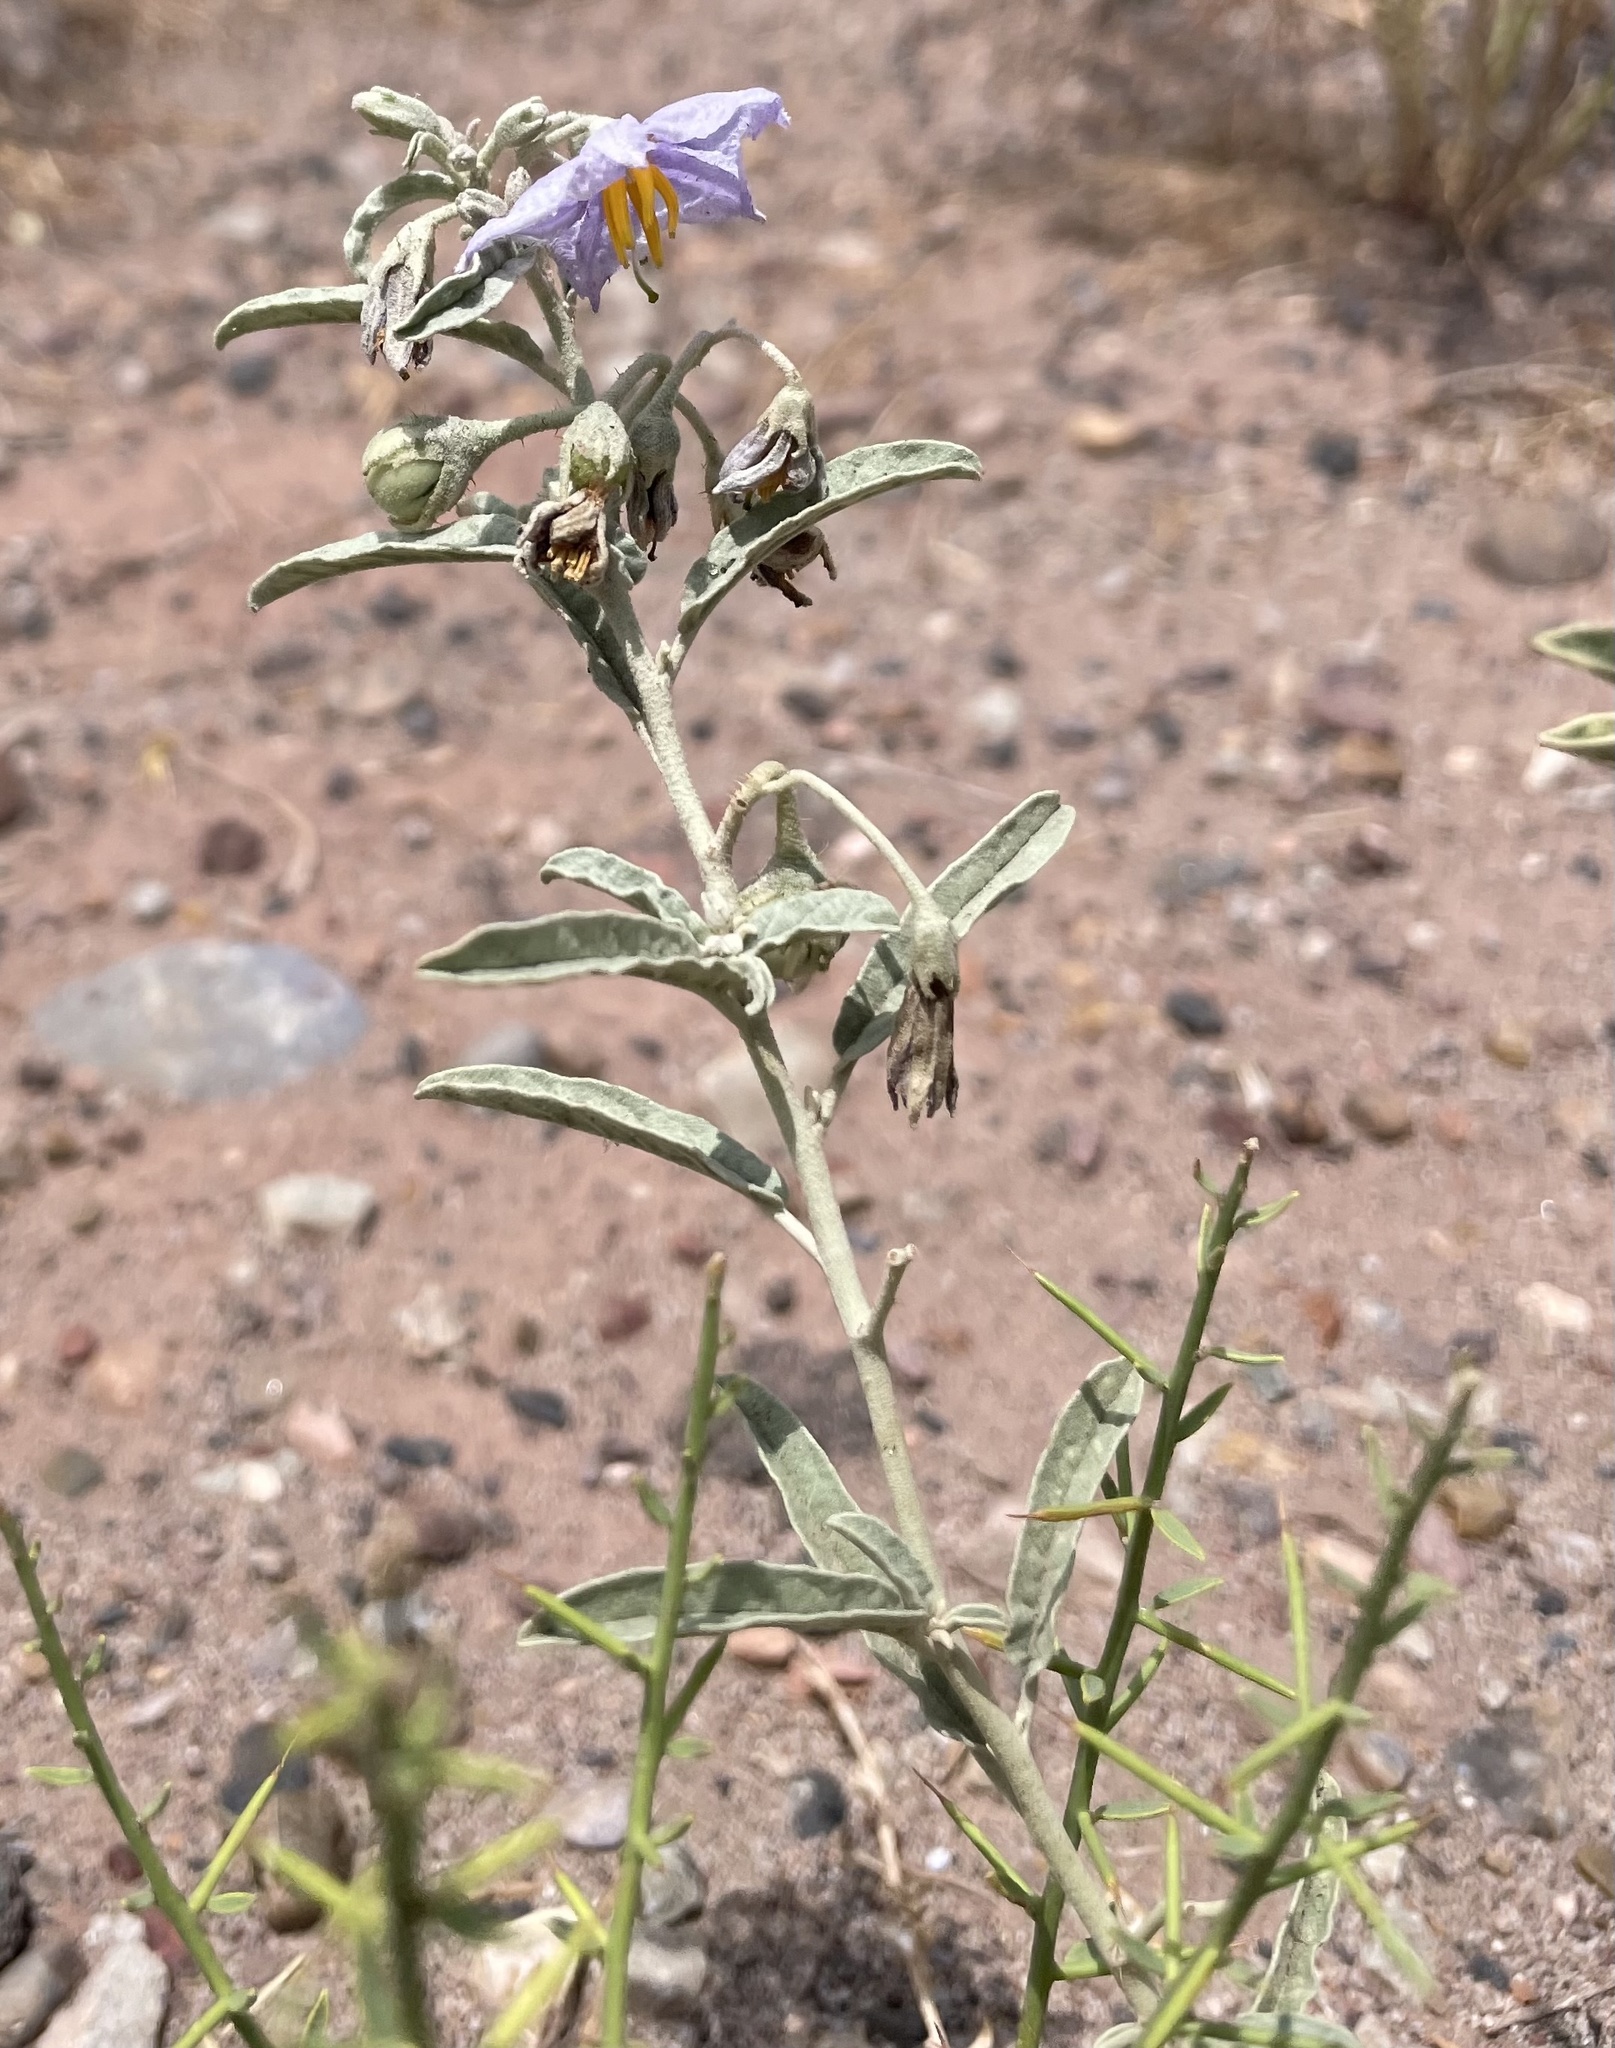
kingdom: Plantae
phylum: Tracheophyta
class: Magnoliopsida
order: Solanales
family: Solanaceae
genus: Solanum
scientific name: Solanum elaeagnifolium
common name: Silverleaf nightshade
